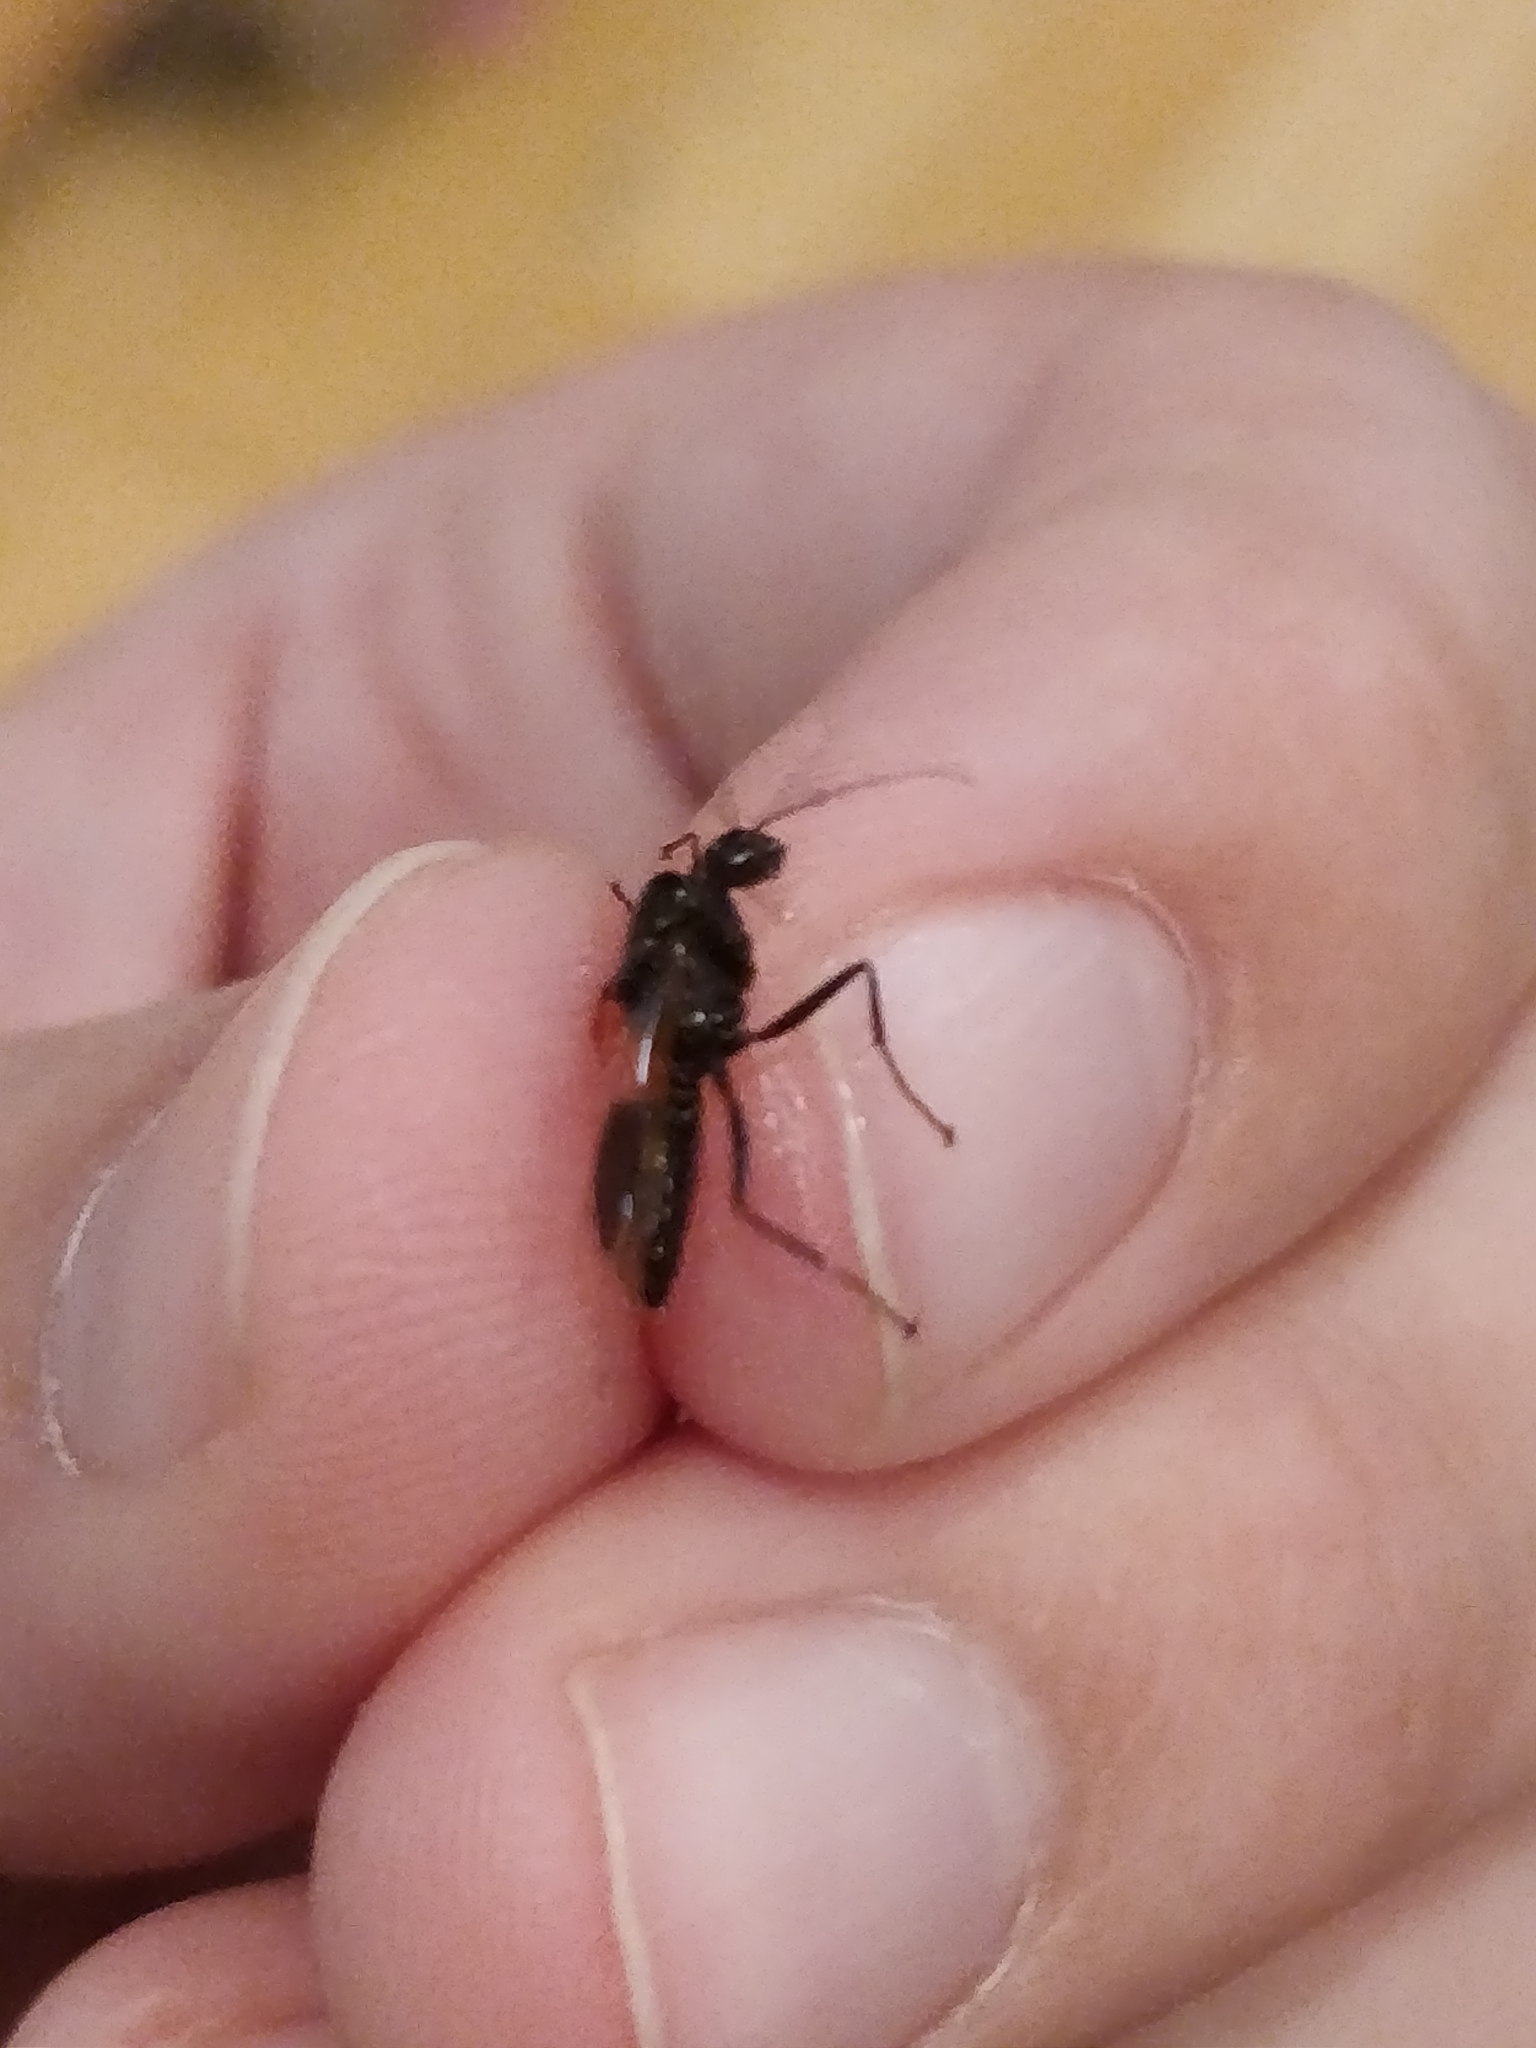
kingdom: Animalia
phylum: Arthropoda
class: Insecta
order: Hymenoptera
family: Formicidae
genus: Camponotus
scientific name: Camponotus pennsylvanicus
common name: Black carpenter ant
